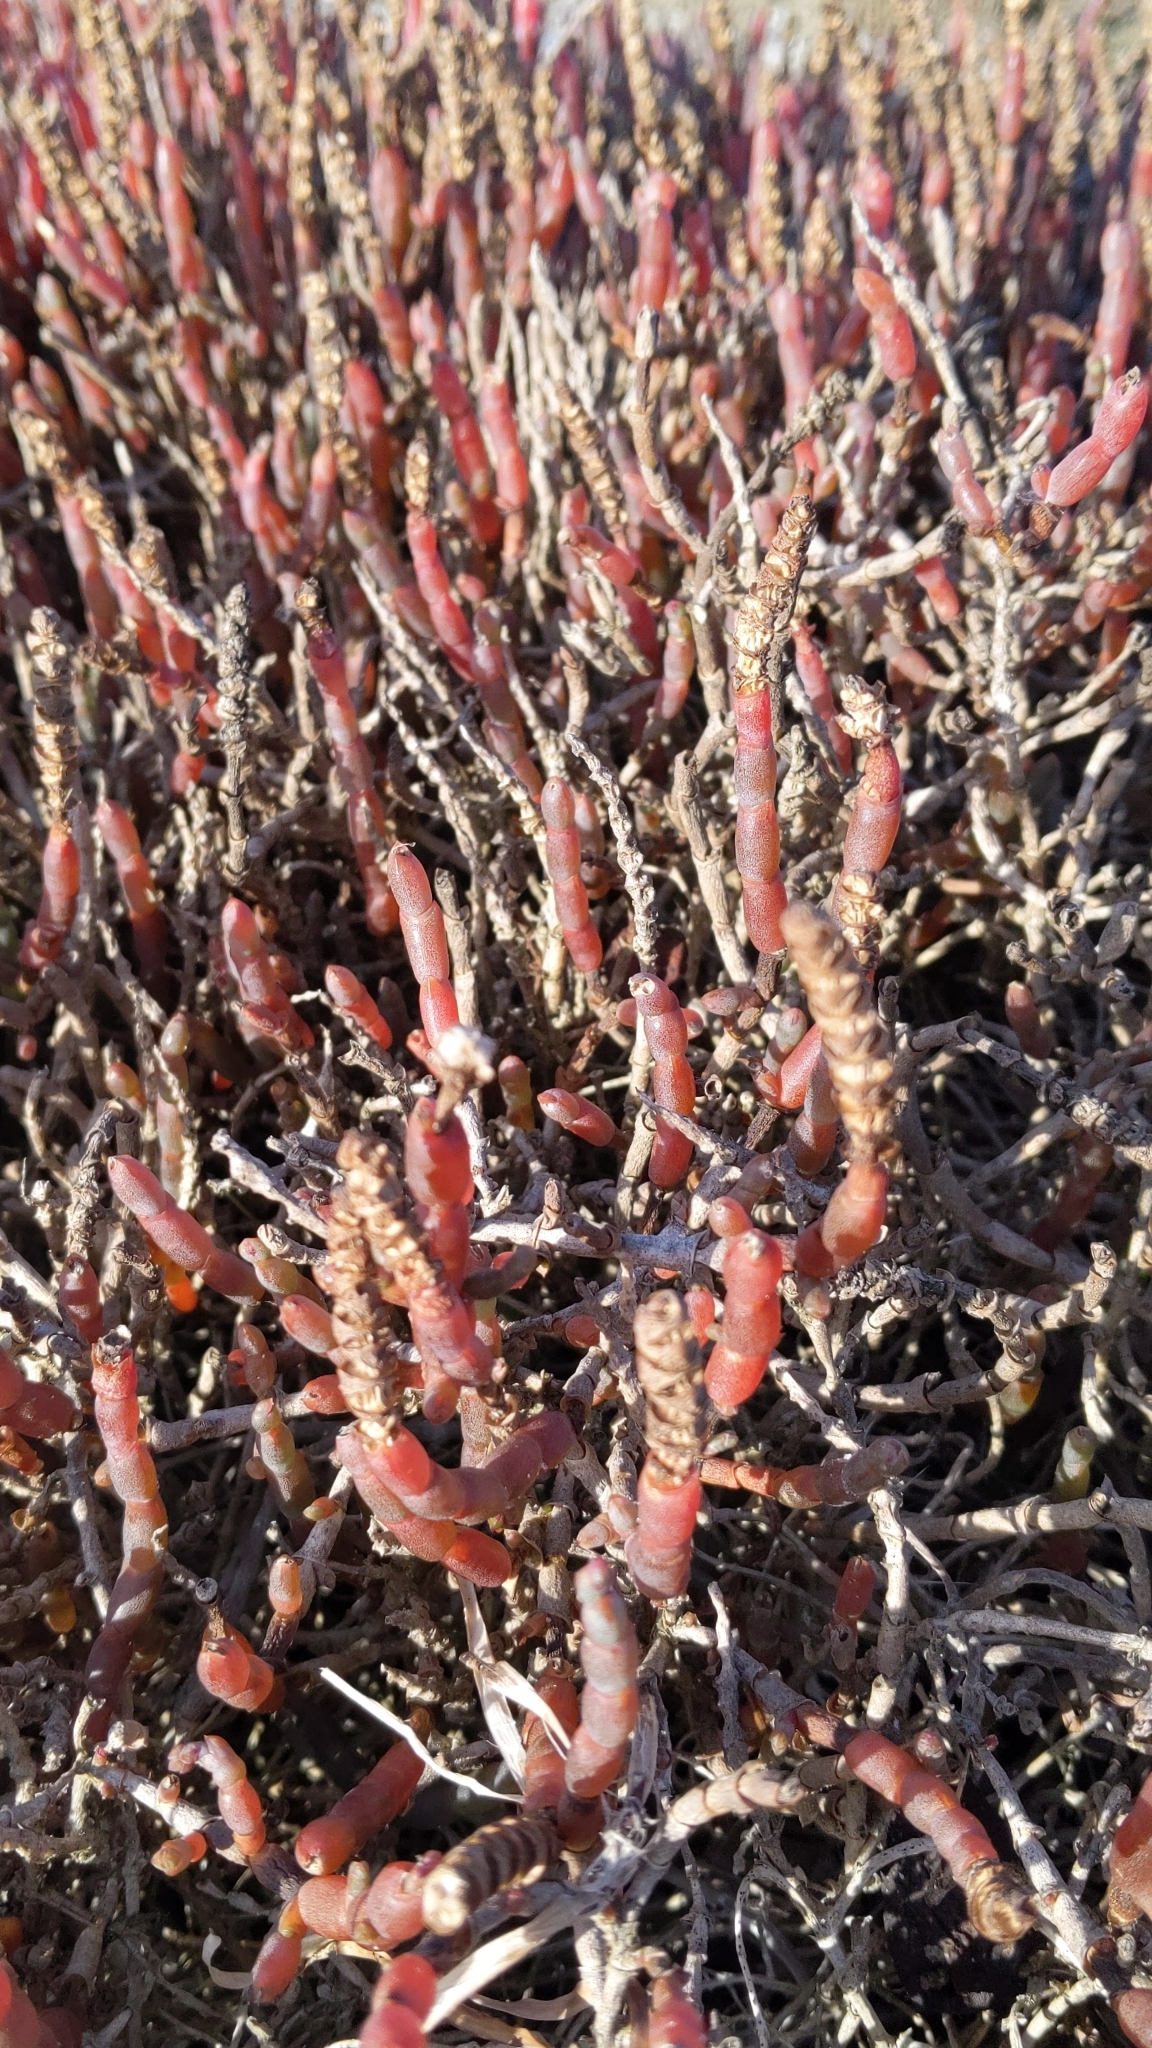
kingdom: Plantae
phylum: Tracheophyta
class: Magnoliopsida
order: Caryophyllales
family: Amaranthaceae
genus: Salicornia
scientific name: Salicornia quinqueflora
